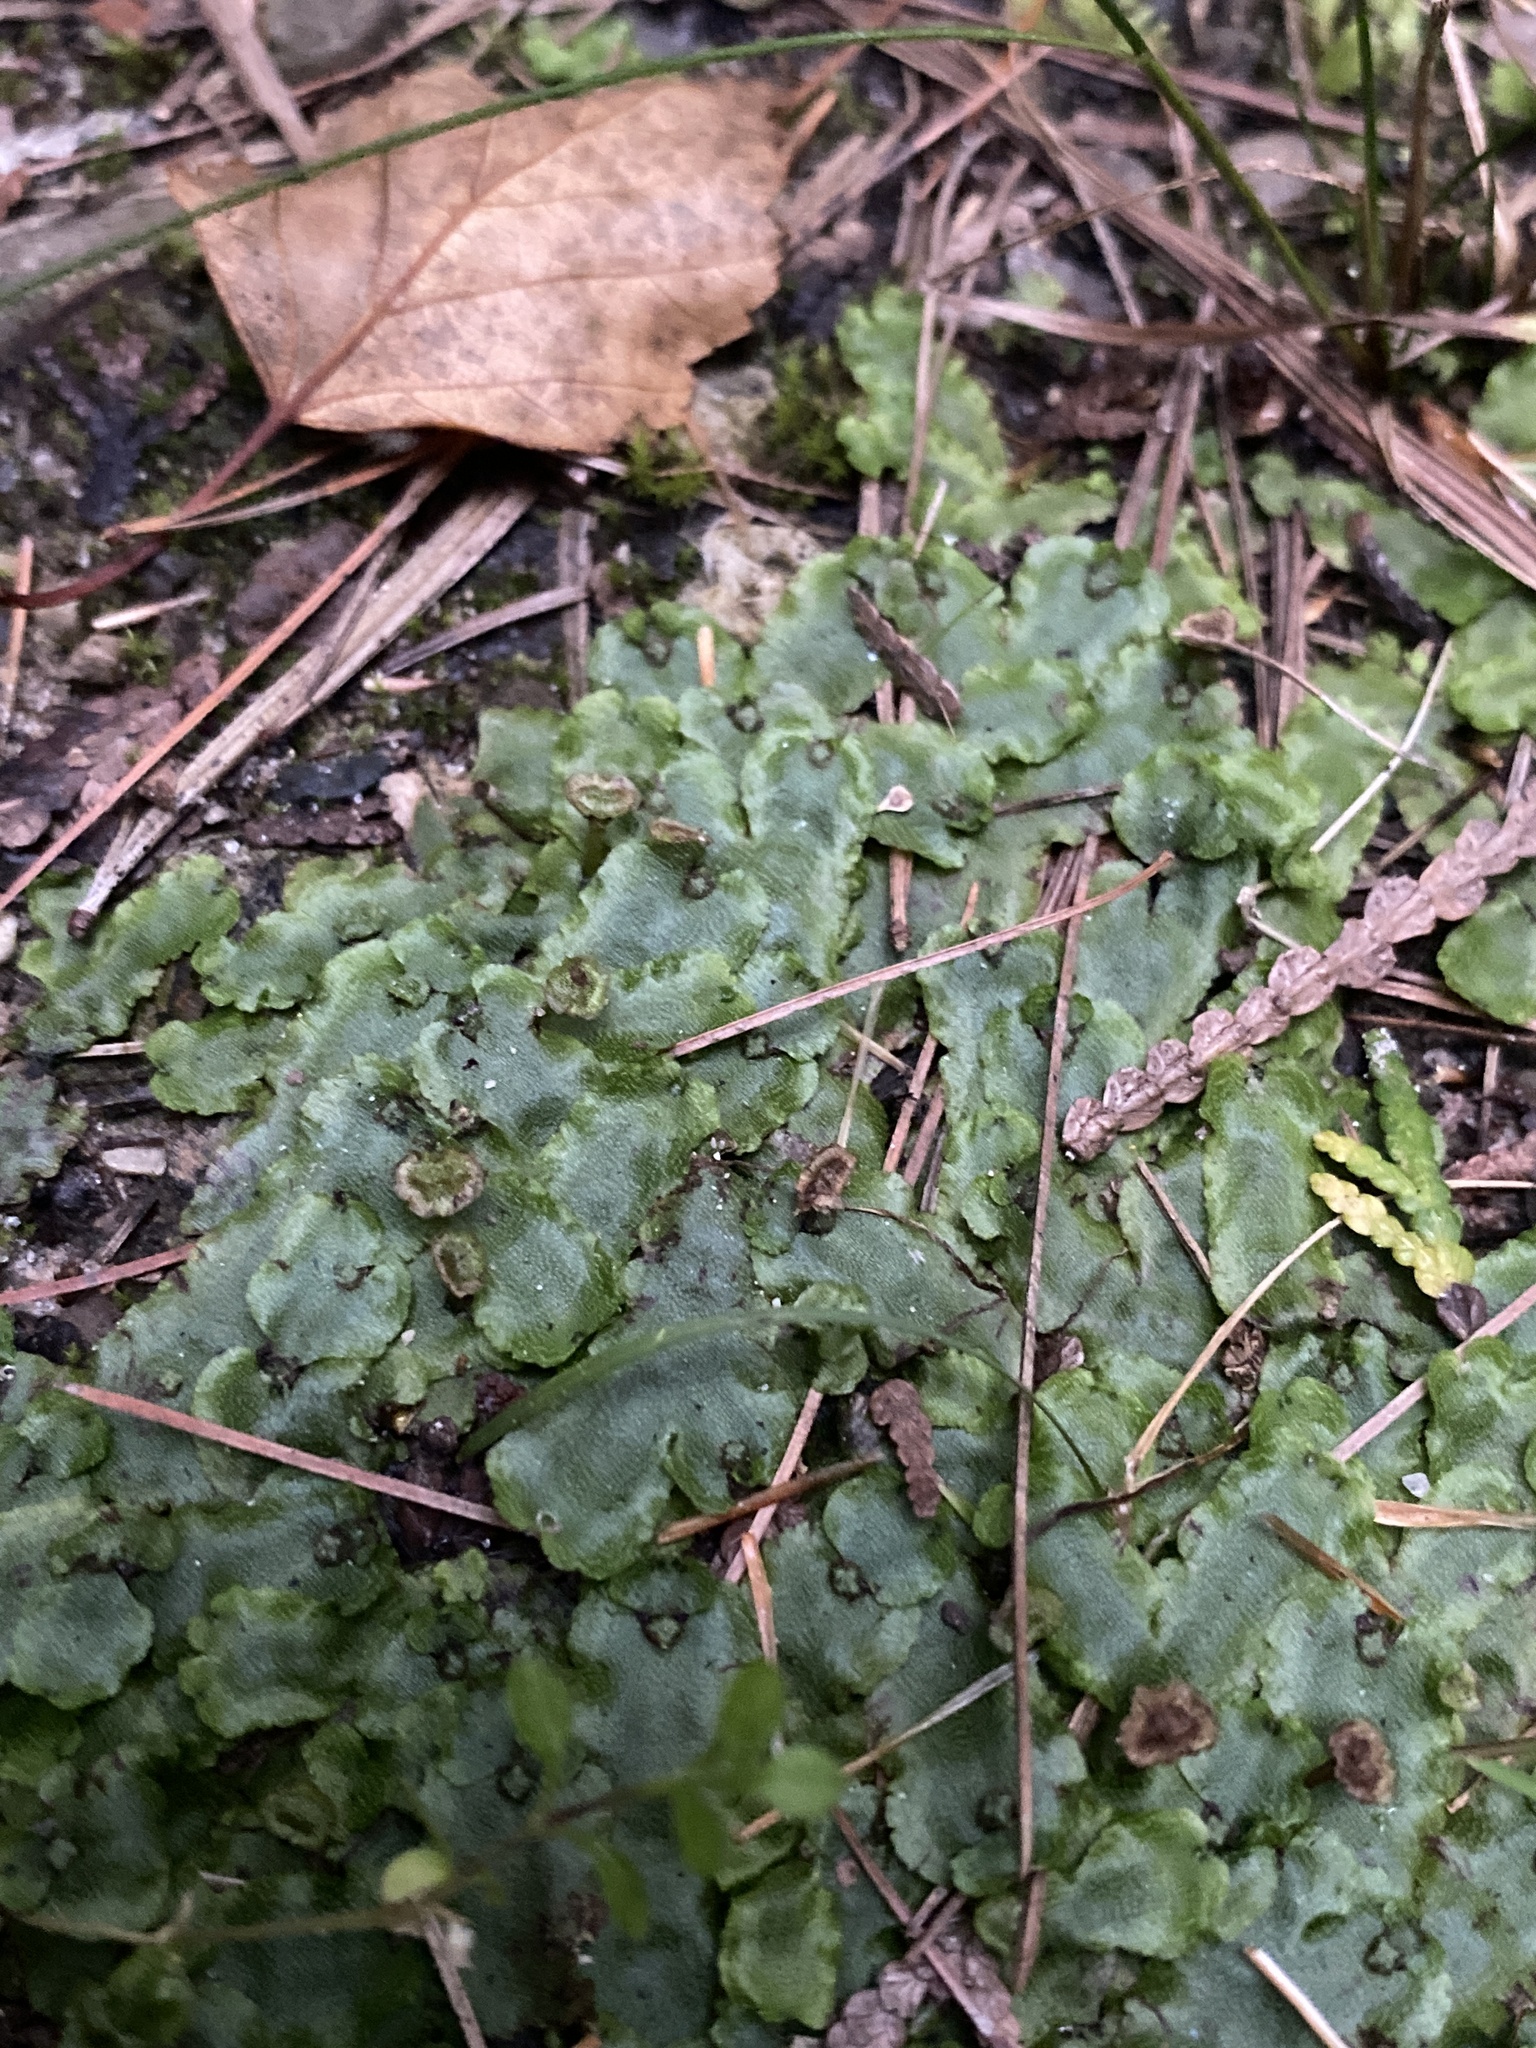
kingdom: Plantae
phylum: Marchantiophyta
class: Marchantiopsida
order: Marchantiales
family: Marchantiaceae
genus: Marchantia
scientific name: Marchantia polymorpha
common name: Common liverwort
